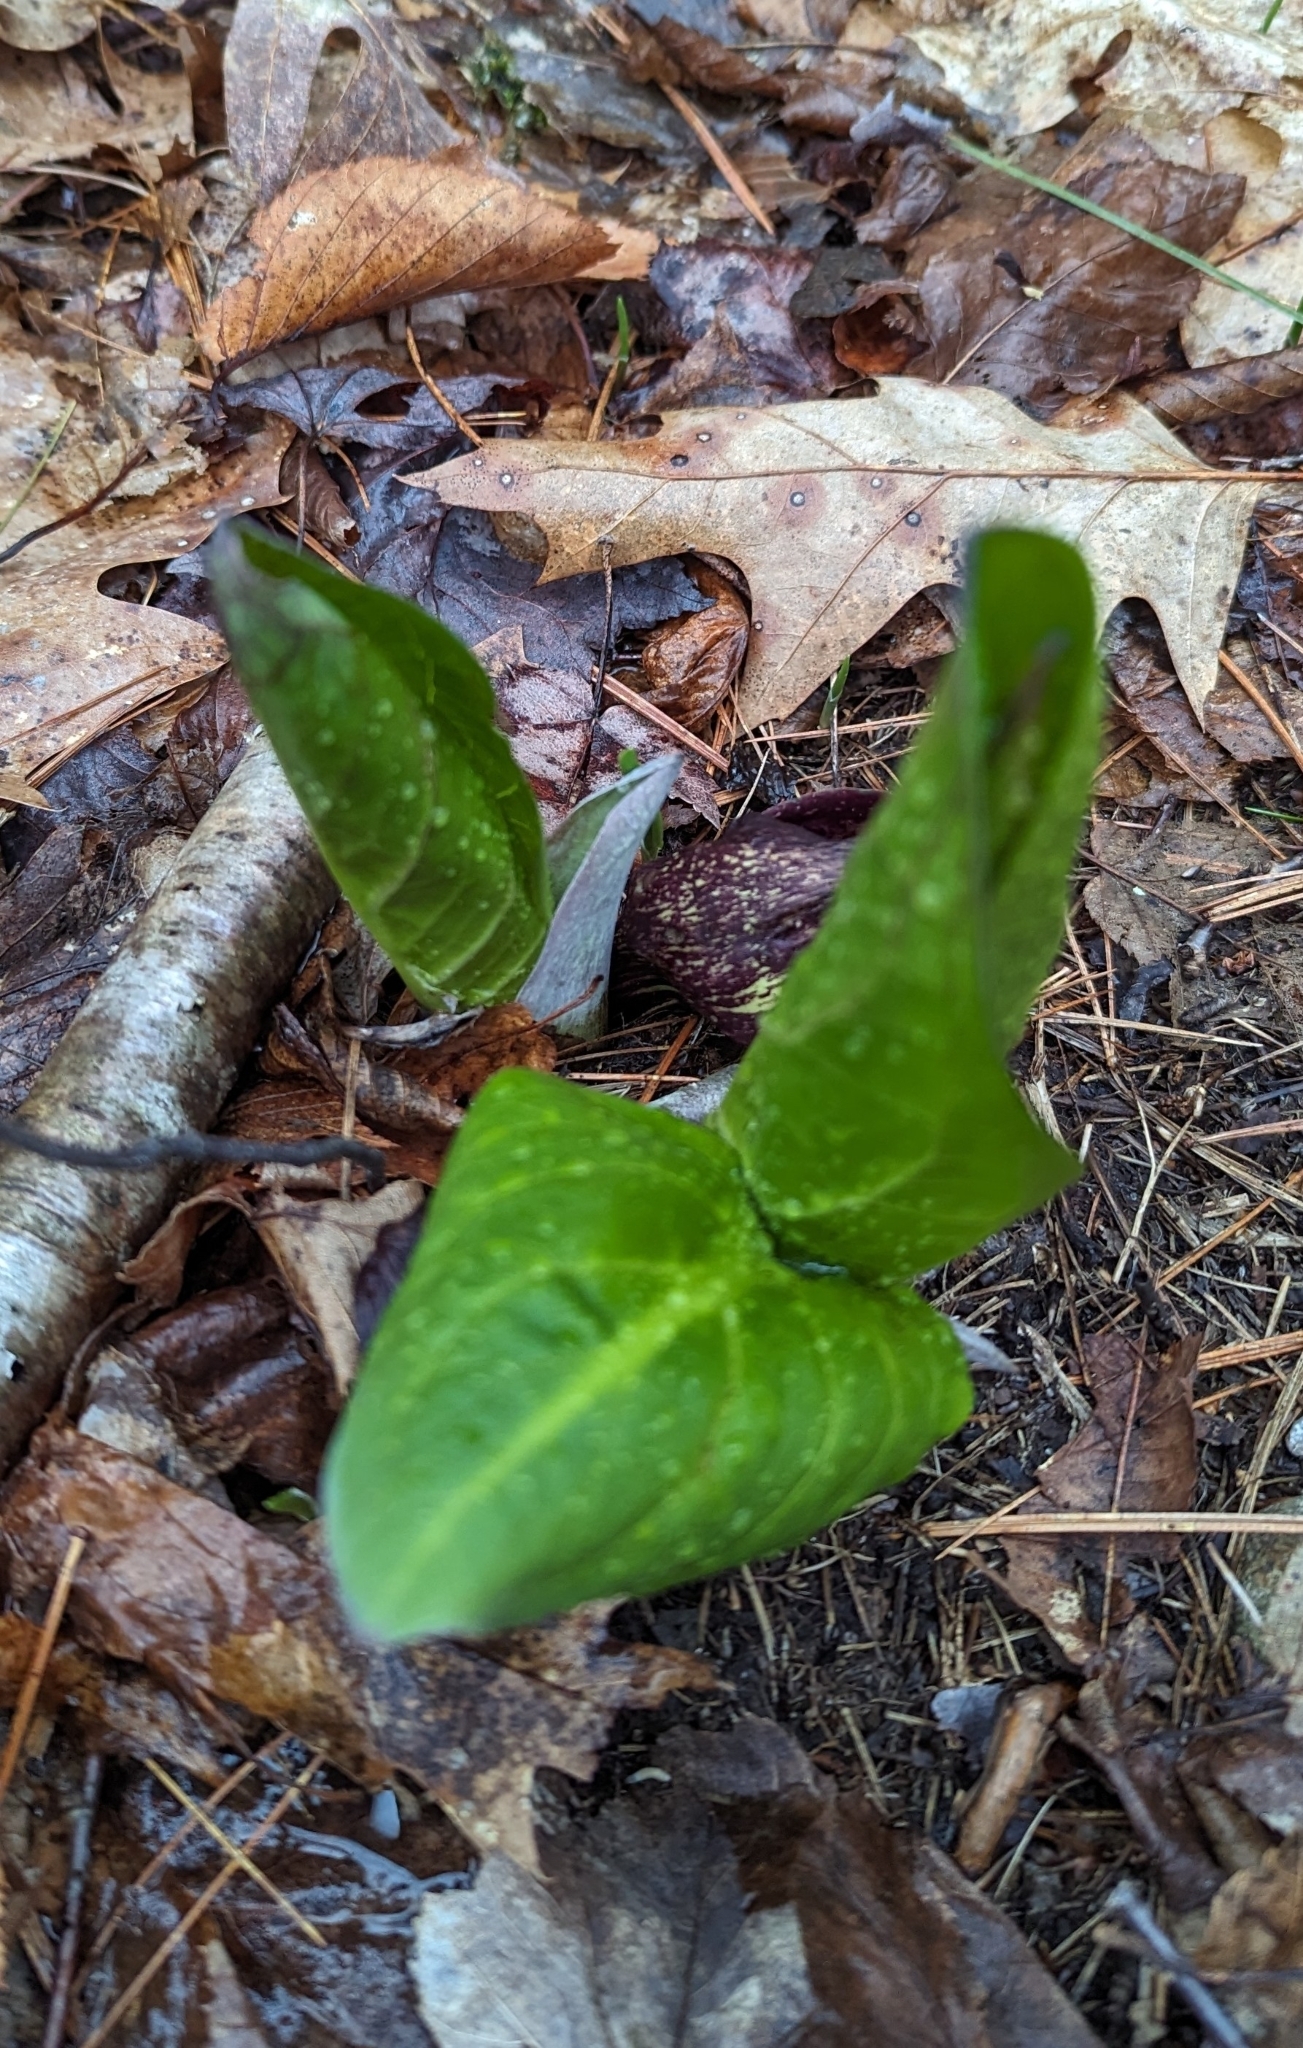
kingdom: Plantae
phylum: Tracheophyta
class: Liliopsida
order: Alismatales
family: Araceae
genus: Symplocarpus
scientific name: Symplocarpus foetidus
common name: Eastern skunk cabbage
